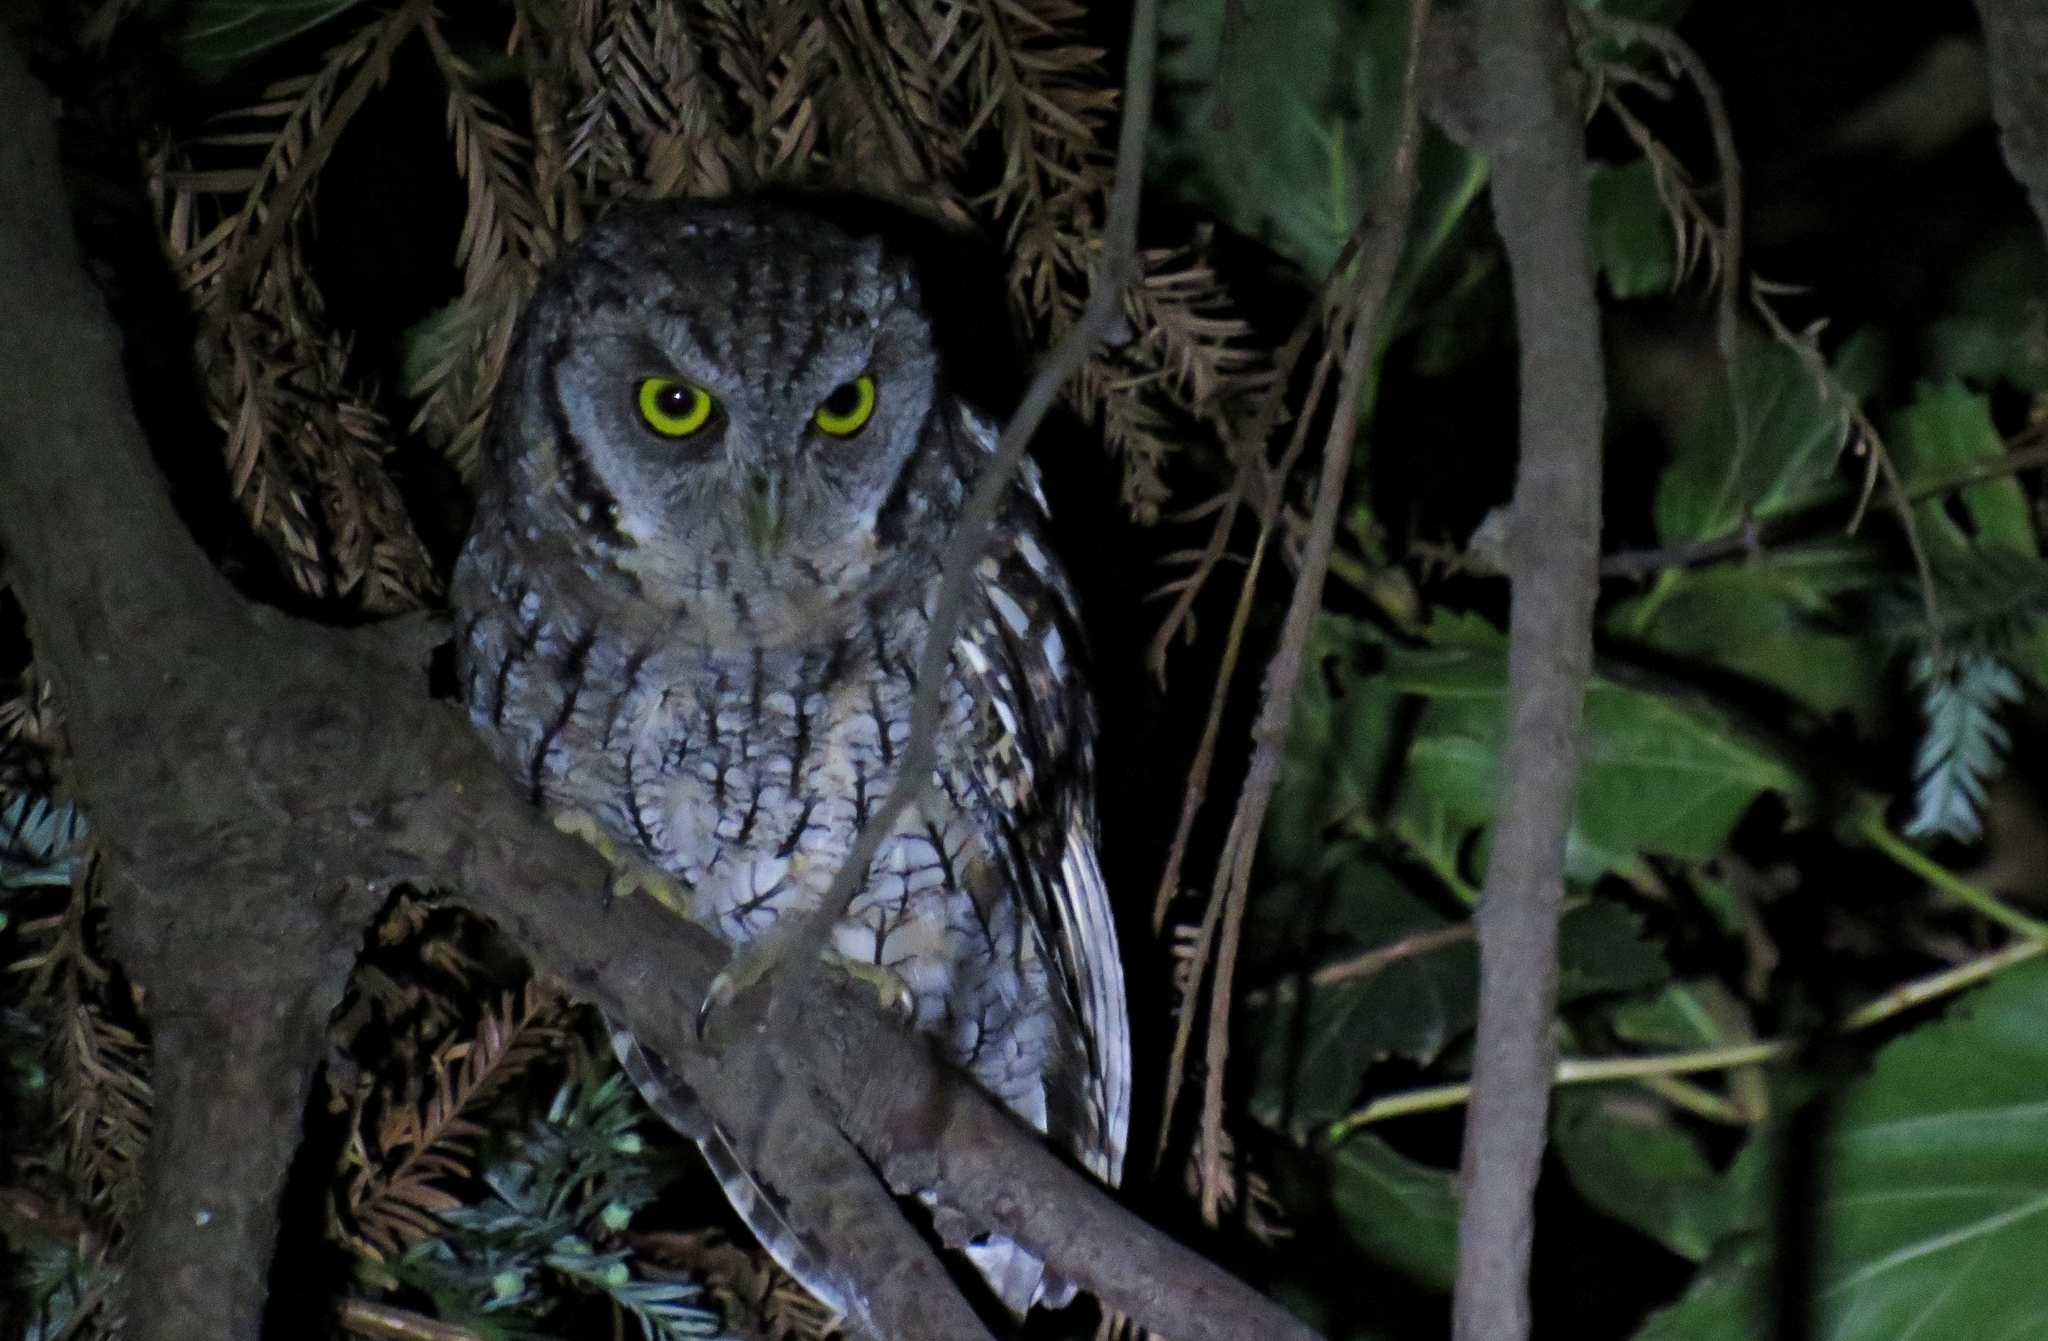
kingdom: Animalia
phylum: Chordata
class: Aves
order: Strigiformes
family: Strigidae
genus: Megascops
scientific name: Megascops choliba
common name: Tropical screech-owl
